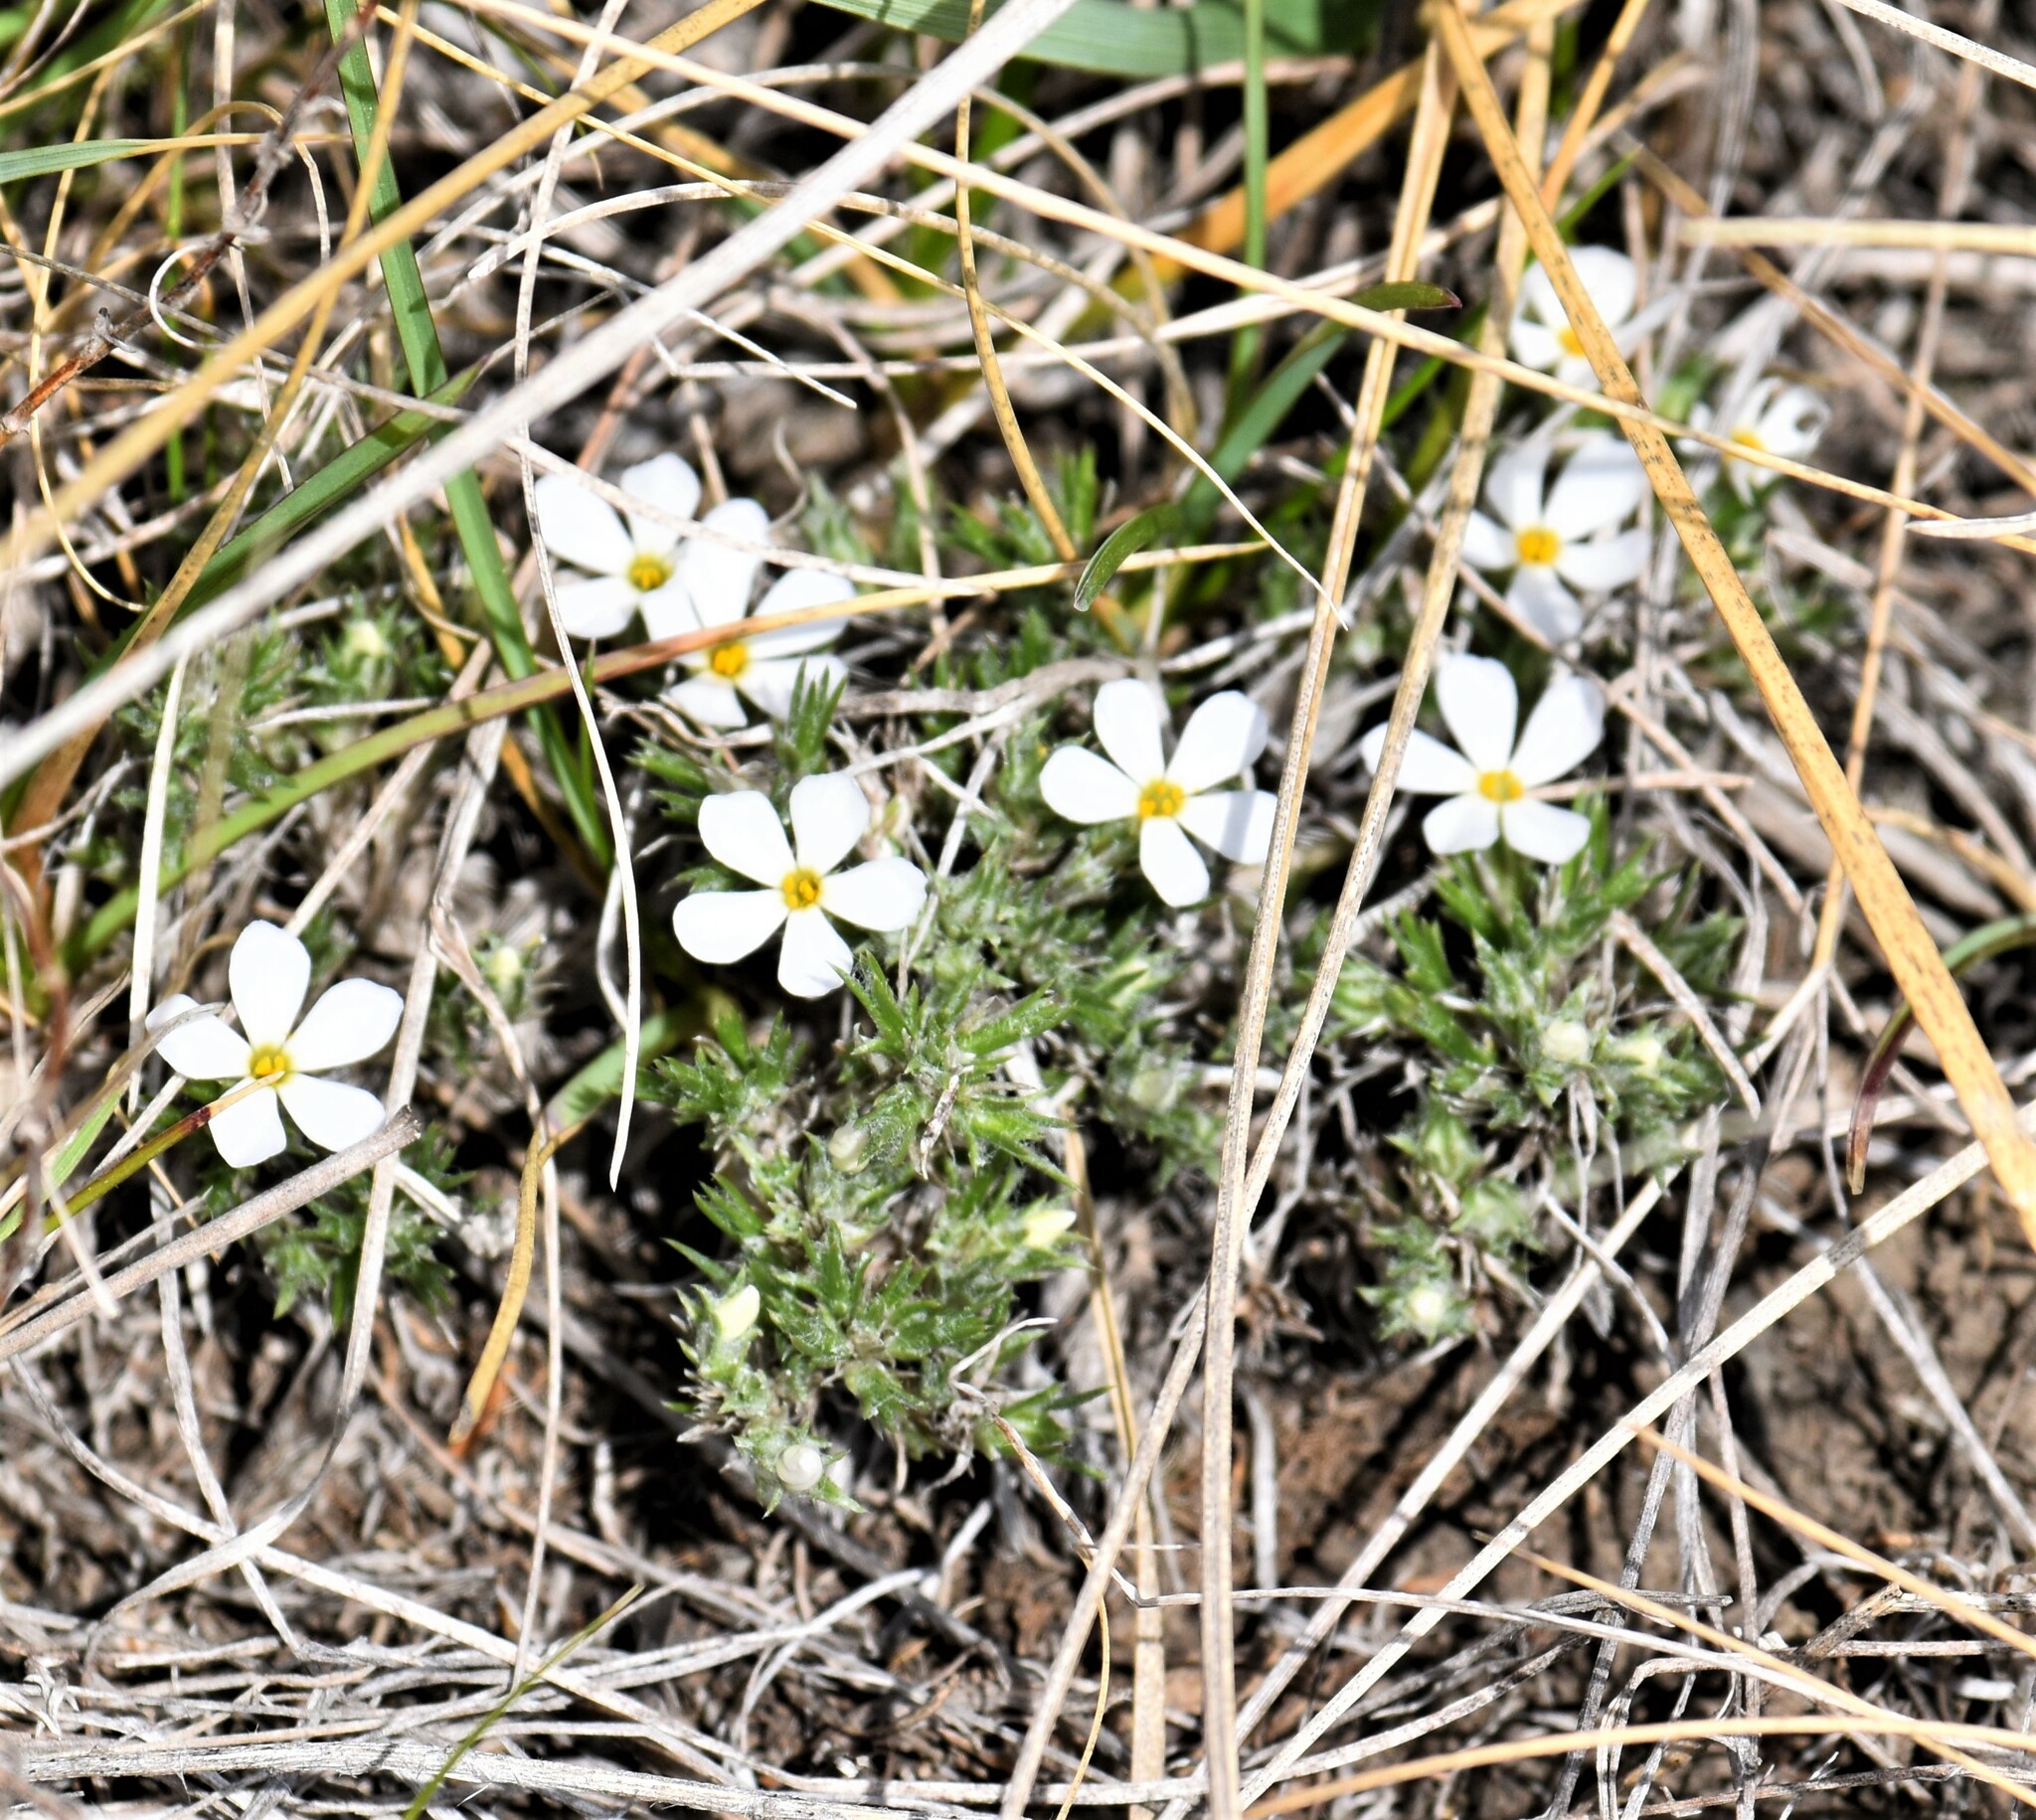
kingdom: Plantae
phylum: Tracheophyta
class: Magnoliopsida
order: Ericales
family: Polemoniaceae
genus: Phlox
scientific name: Phlox hoodii
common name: Moss phlox
